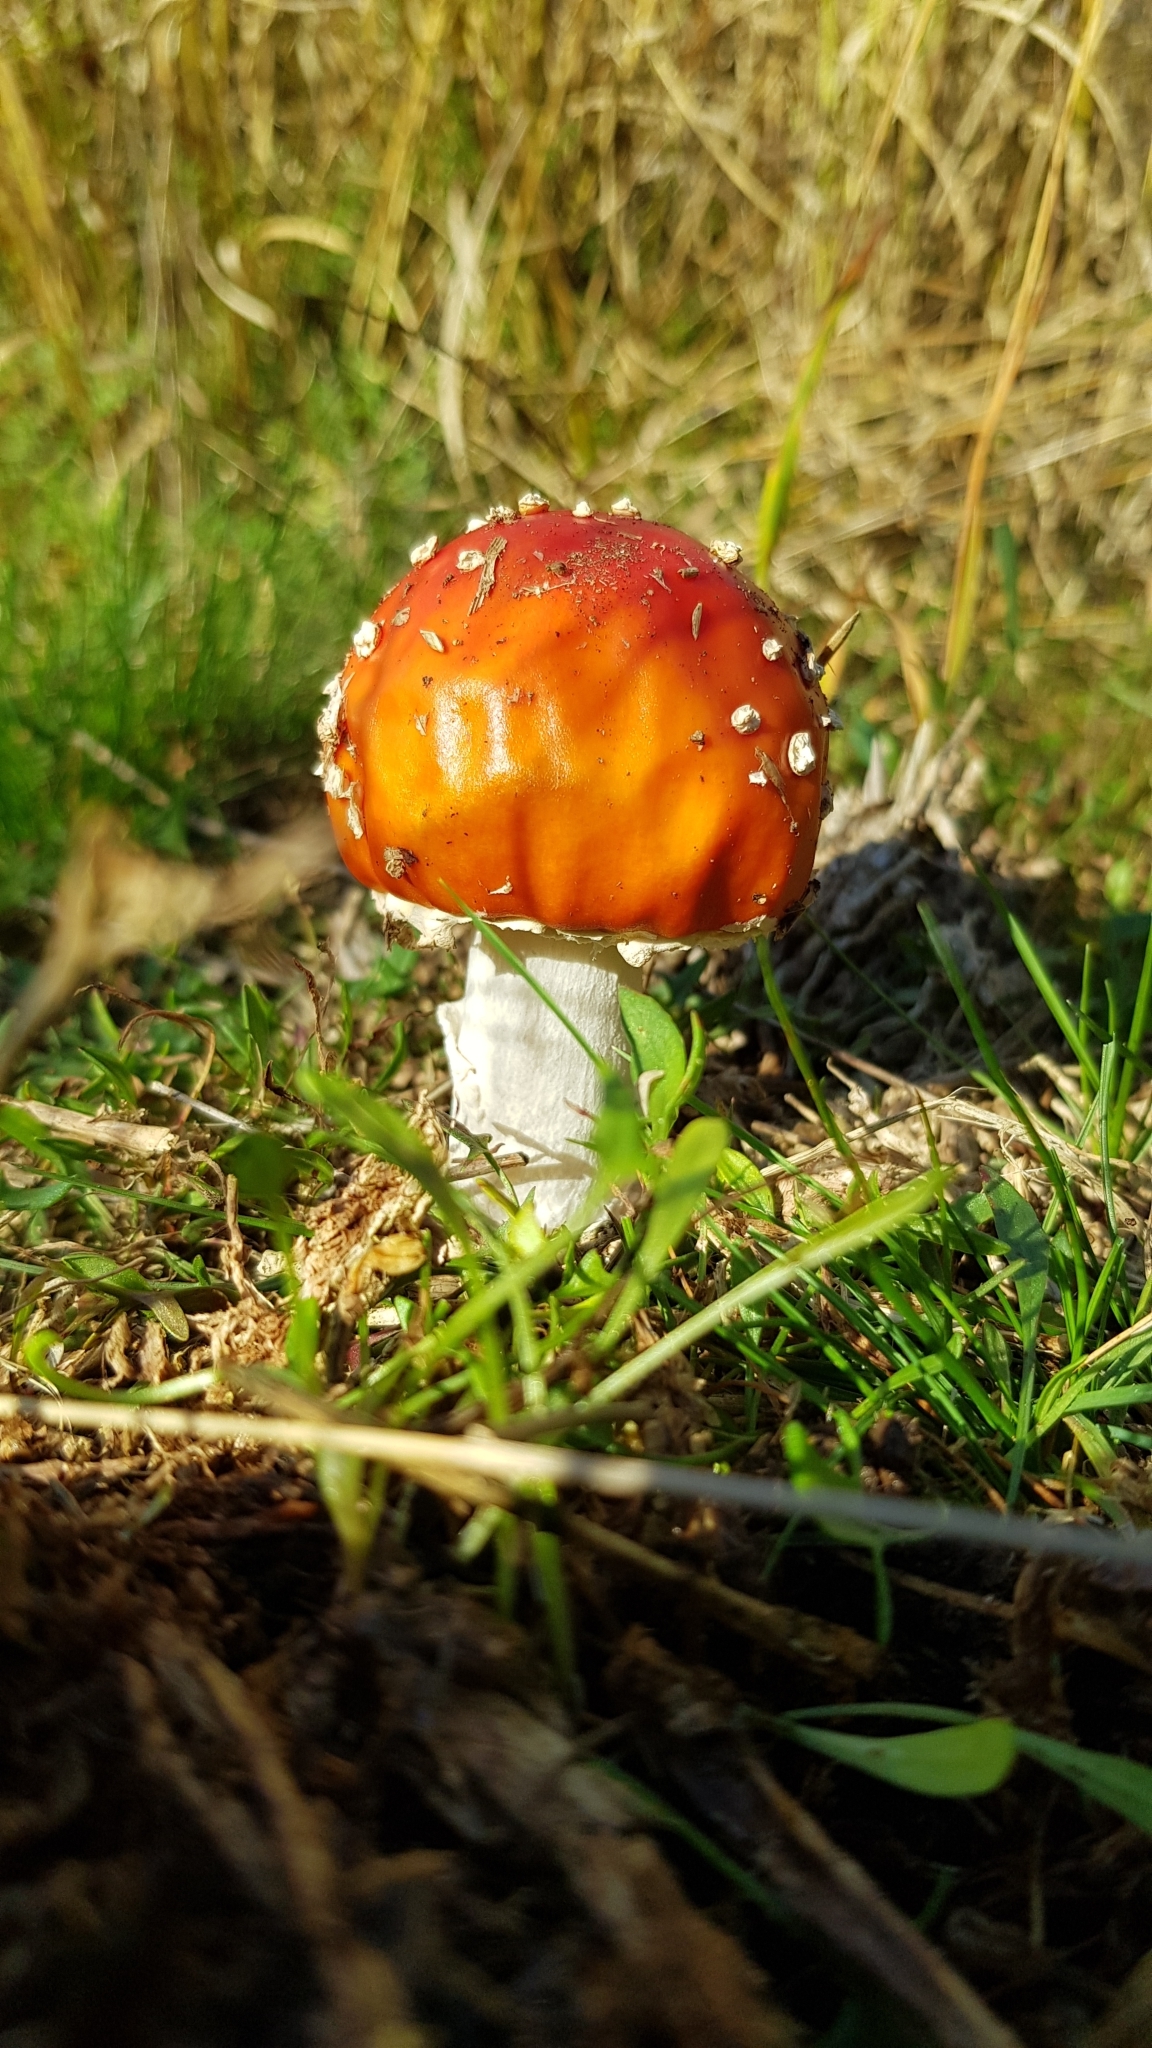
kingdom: Fungi
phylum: Basidiomycota
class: Agaricomycetes
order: Agaricales
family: Amanitaceae
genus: Amanita
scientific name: Amanita muscaria
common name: Fly agaric
